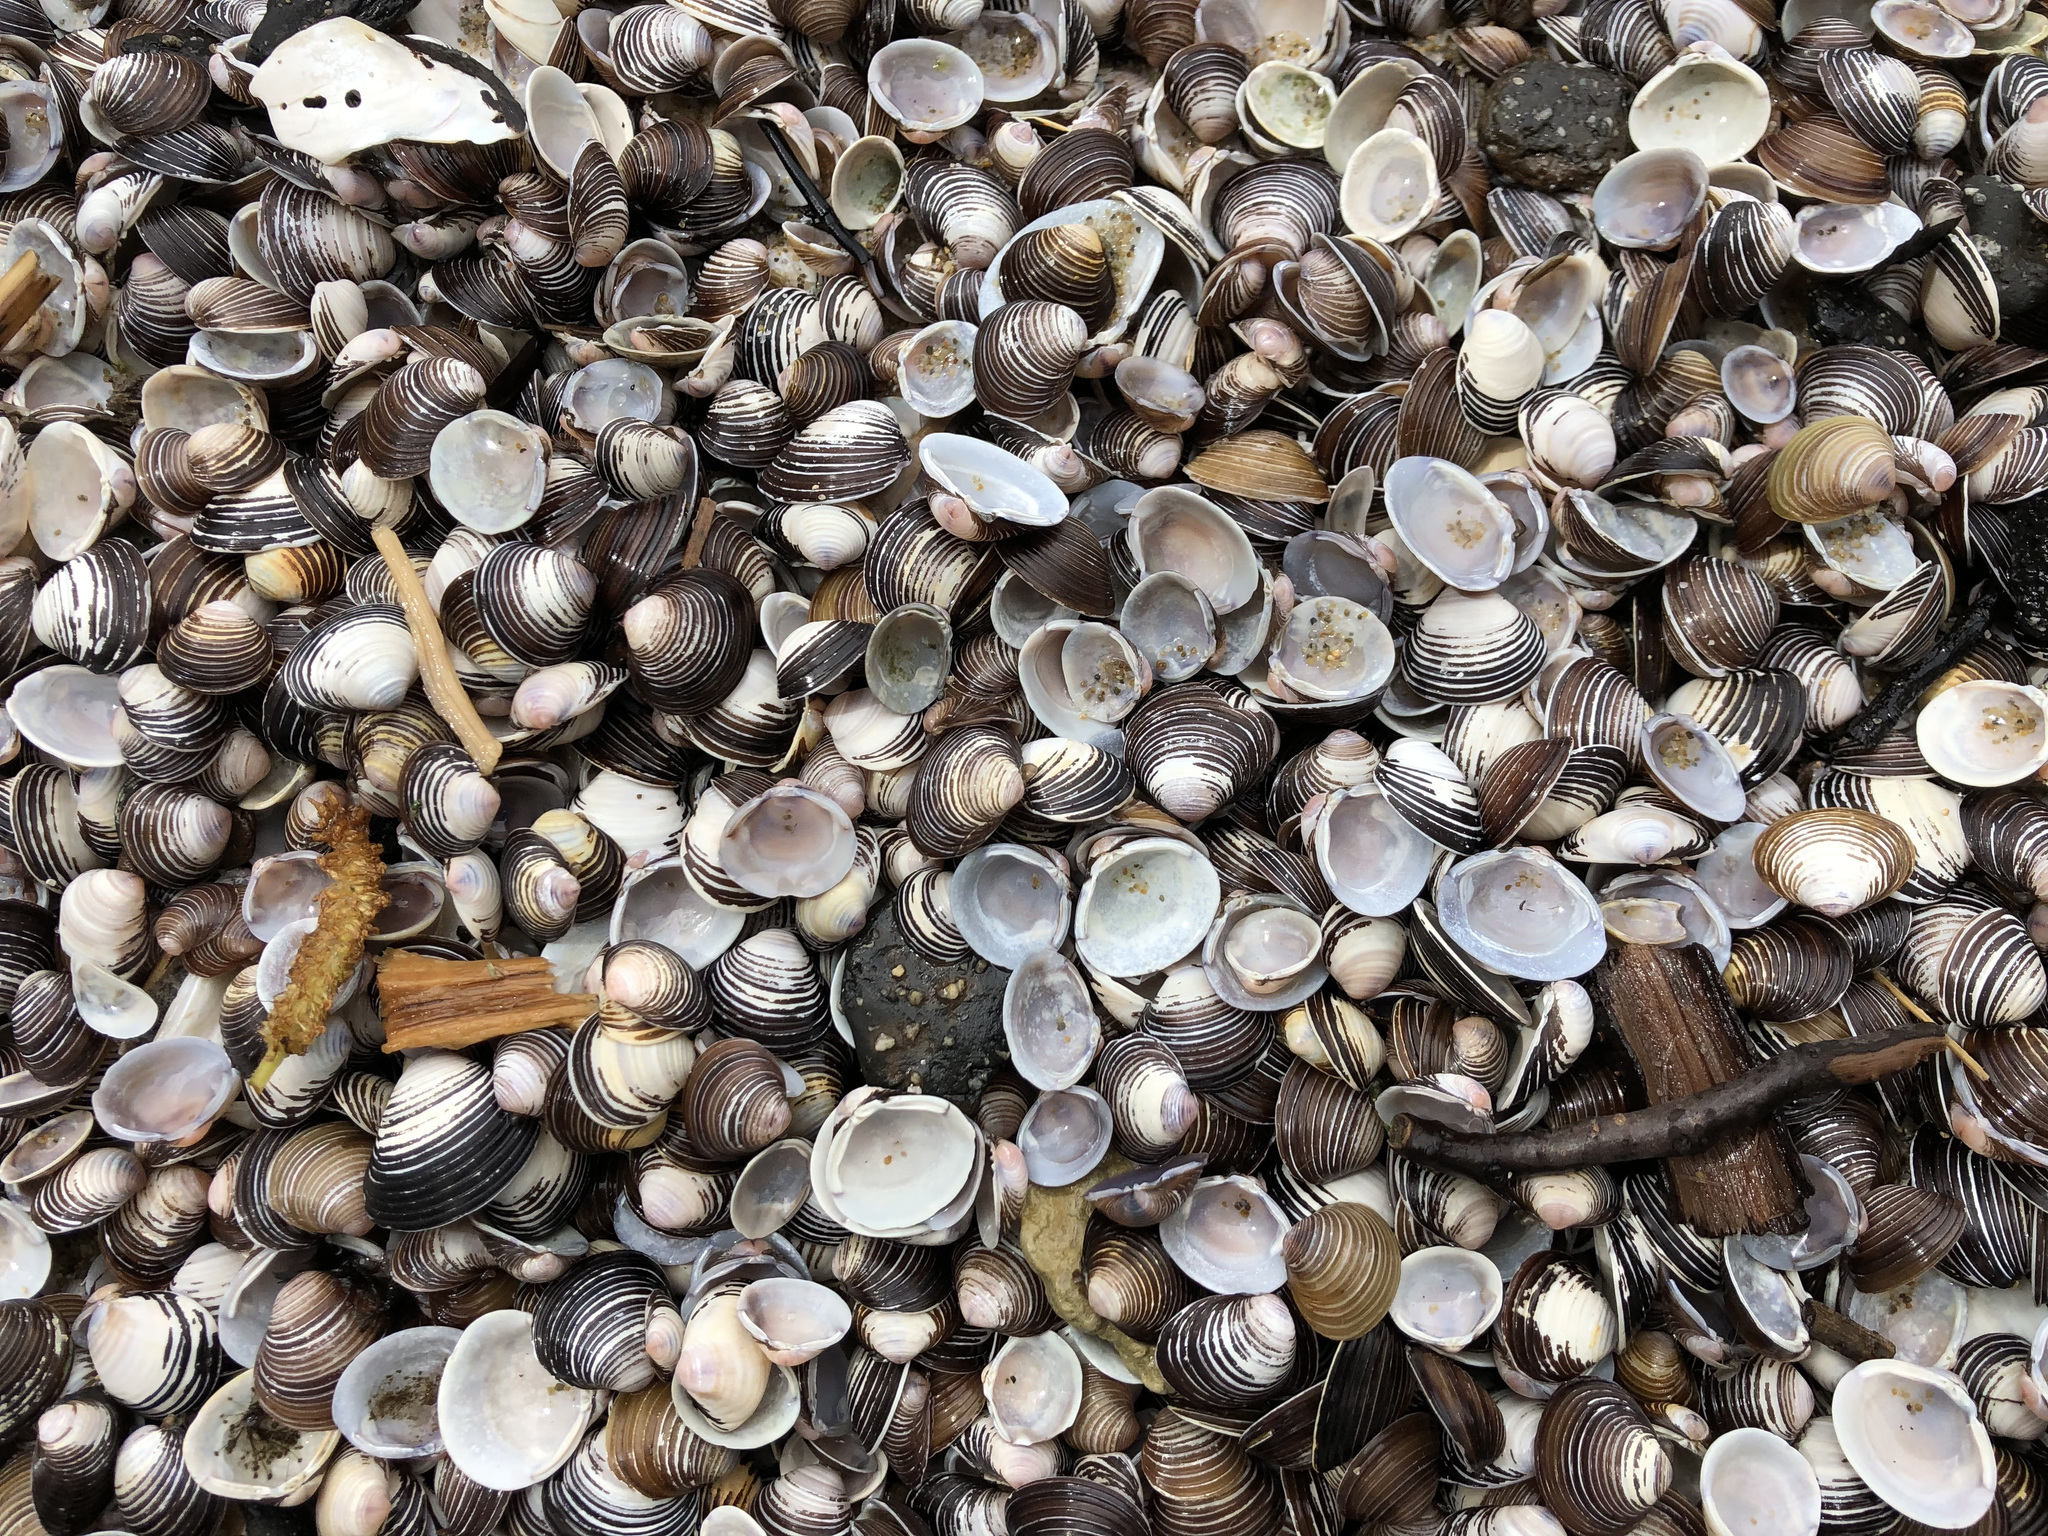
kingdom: Animalia
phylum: Mollusca
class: Bivalvia
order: Venerida
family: Cyrenidae
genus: Corbicula
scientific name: Corbicula fluminea
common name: Asian clam
